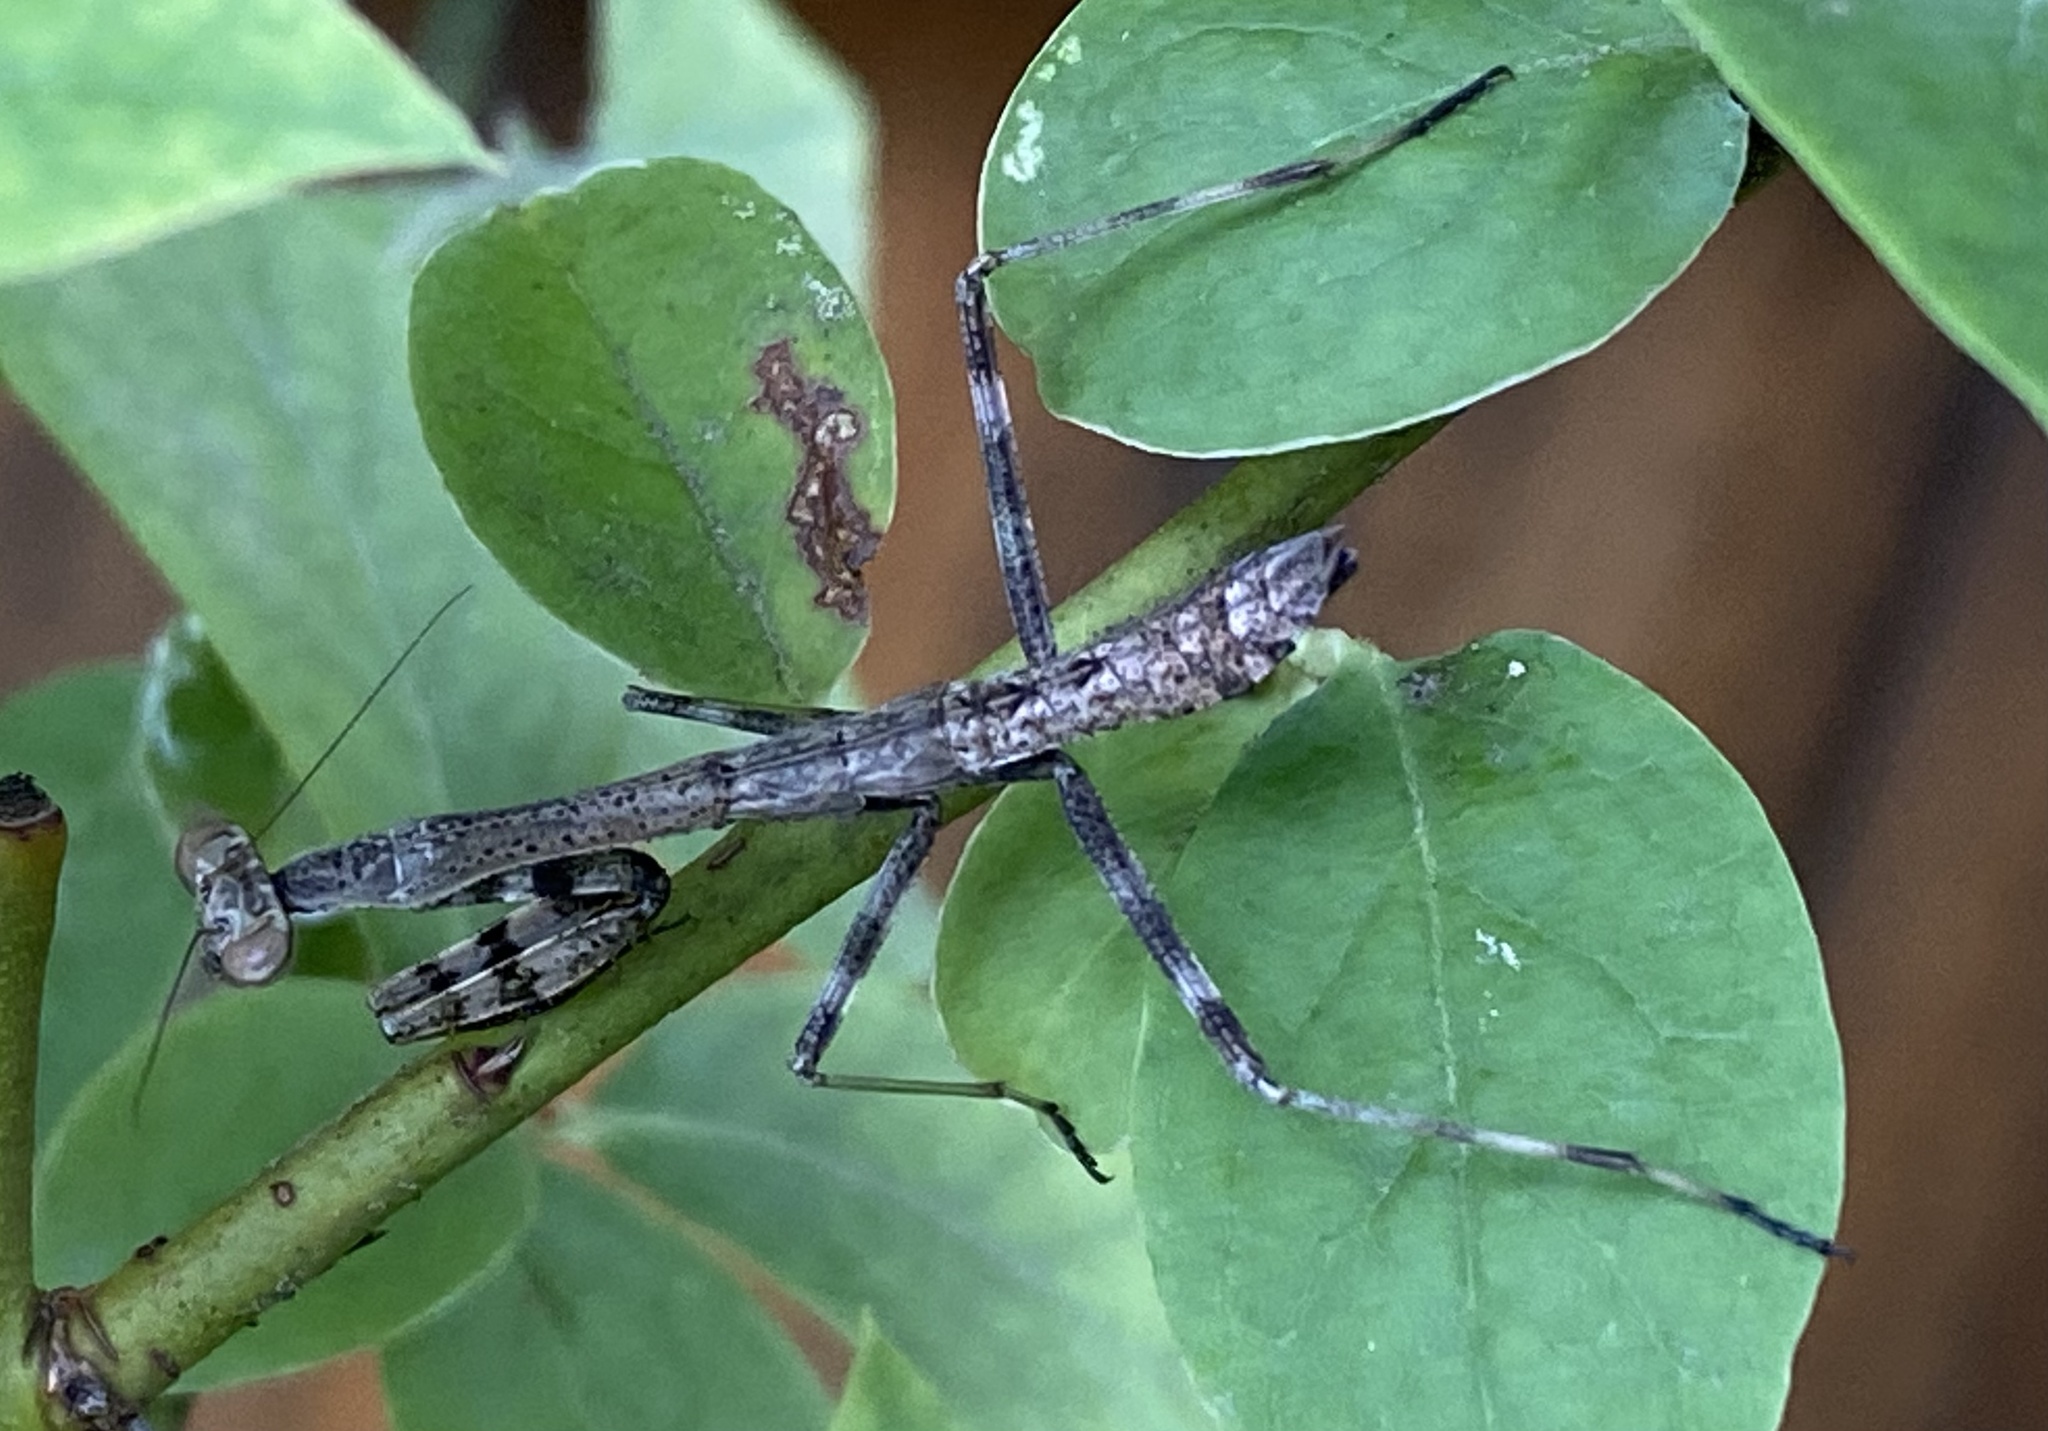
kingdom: Animalia
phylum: Arthropoda
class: Insecta
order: Mantodea
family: Mantidae
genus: Stagmomantis
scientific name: Stagmomantis carolina
